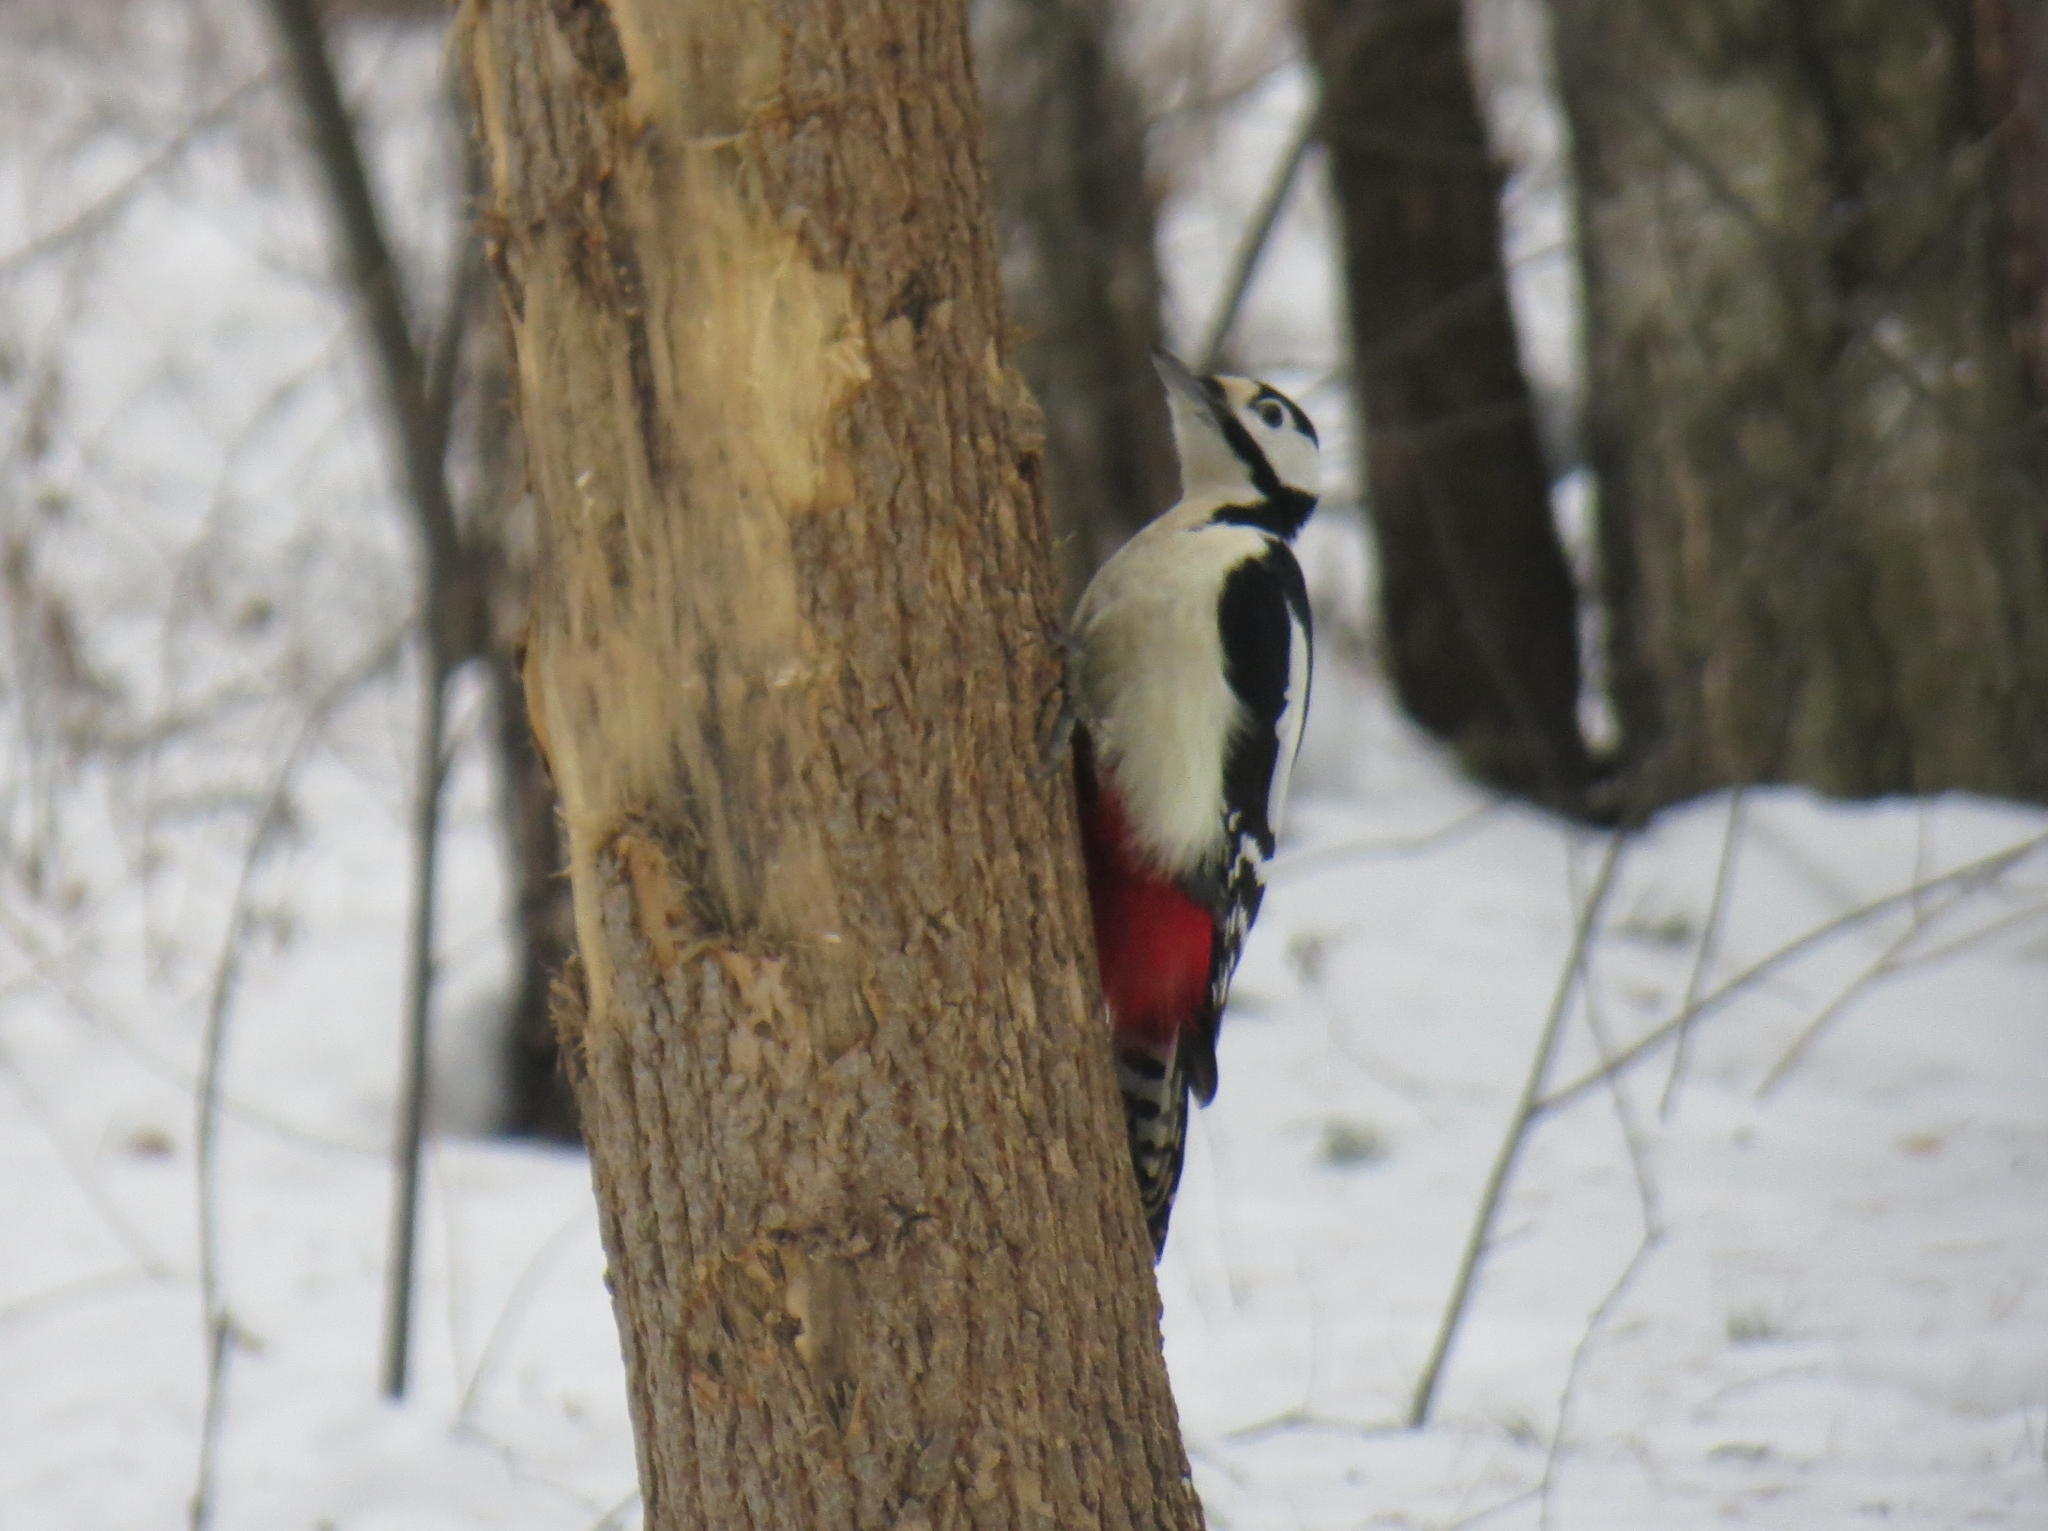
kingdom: Animalia
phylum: Chordata
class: Aves
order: Piciformes
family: Picidae
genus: Dendrocopos
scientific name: Dendrocopos major
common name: Great spotted woodpecker
